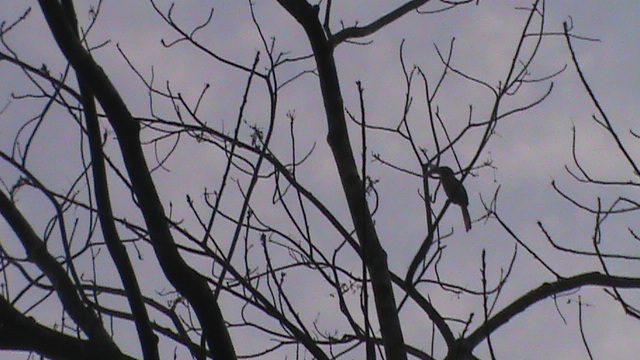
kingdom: Animalia
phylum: Chordata
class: Aves
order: Bucerotiformes
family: Bucerotidae
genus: Ocyceros
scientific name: Ocyceros griseus
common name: Malabar grey hornbill
